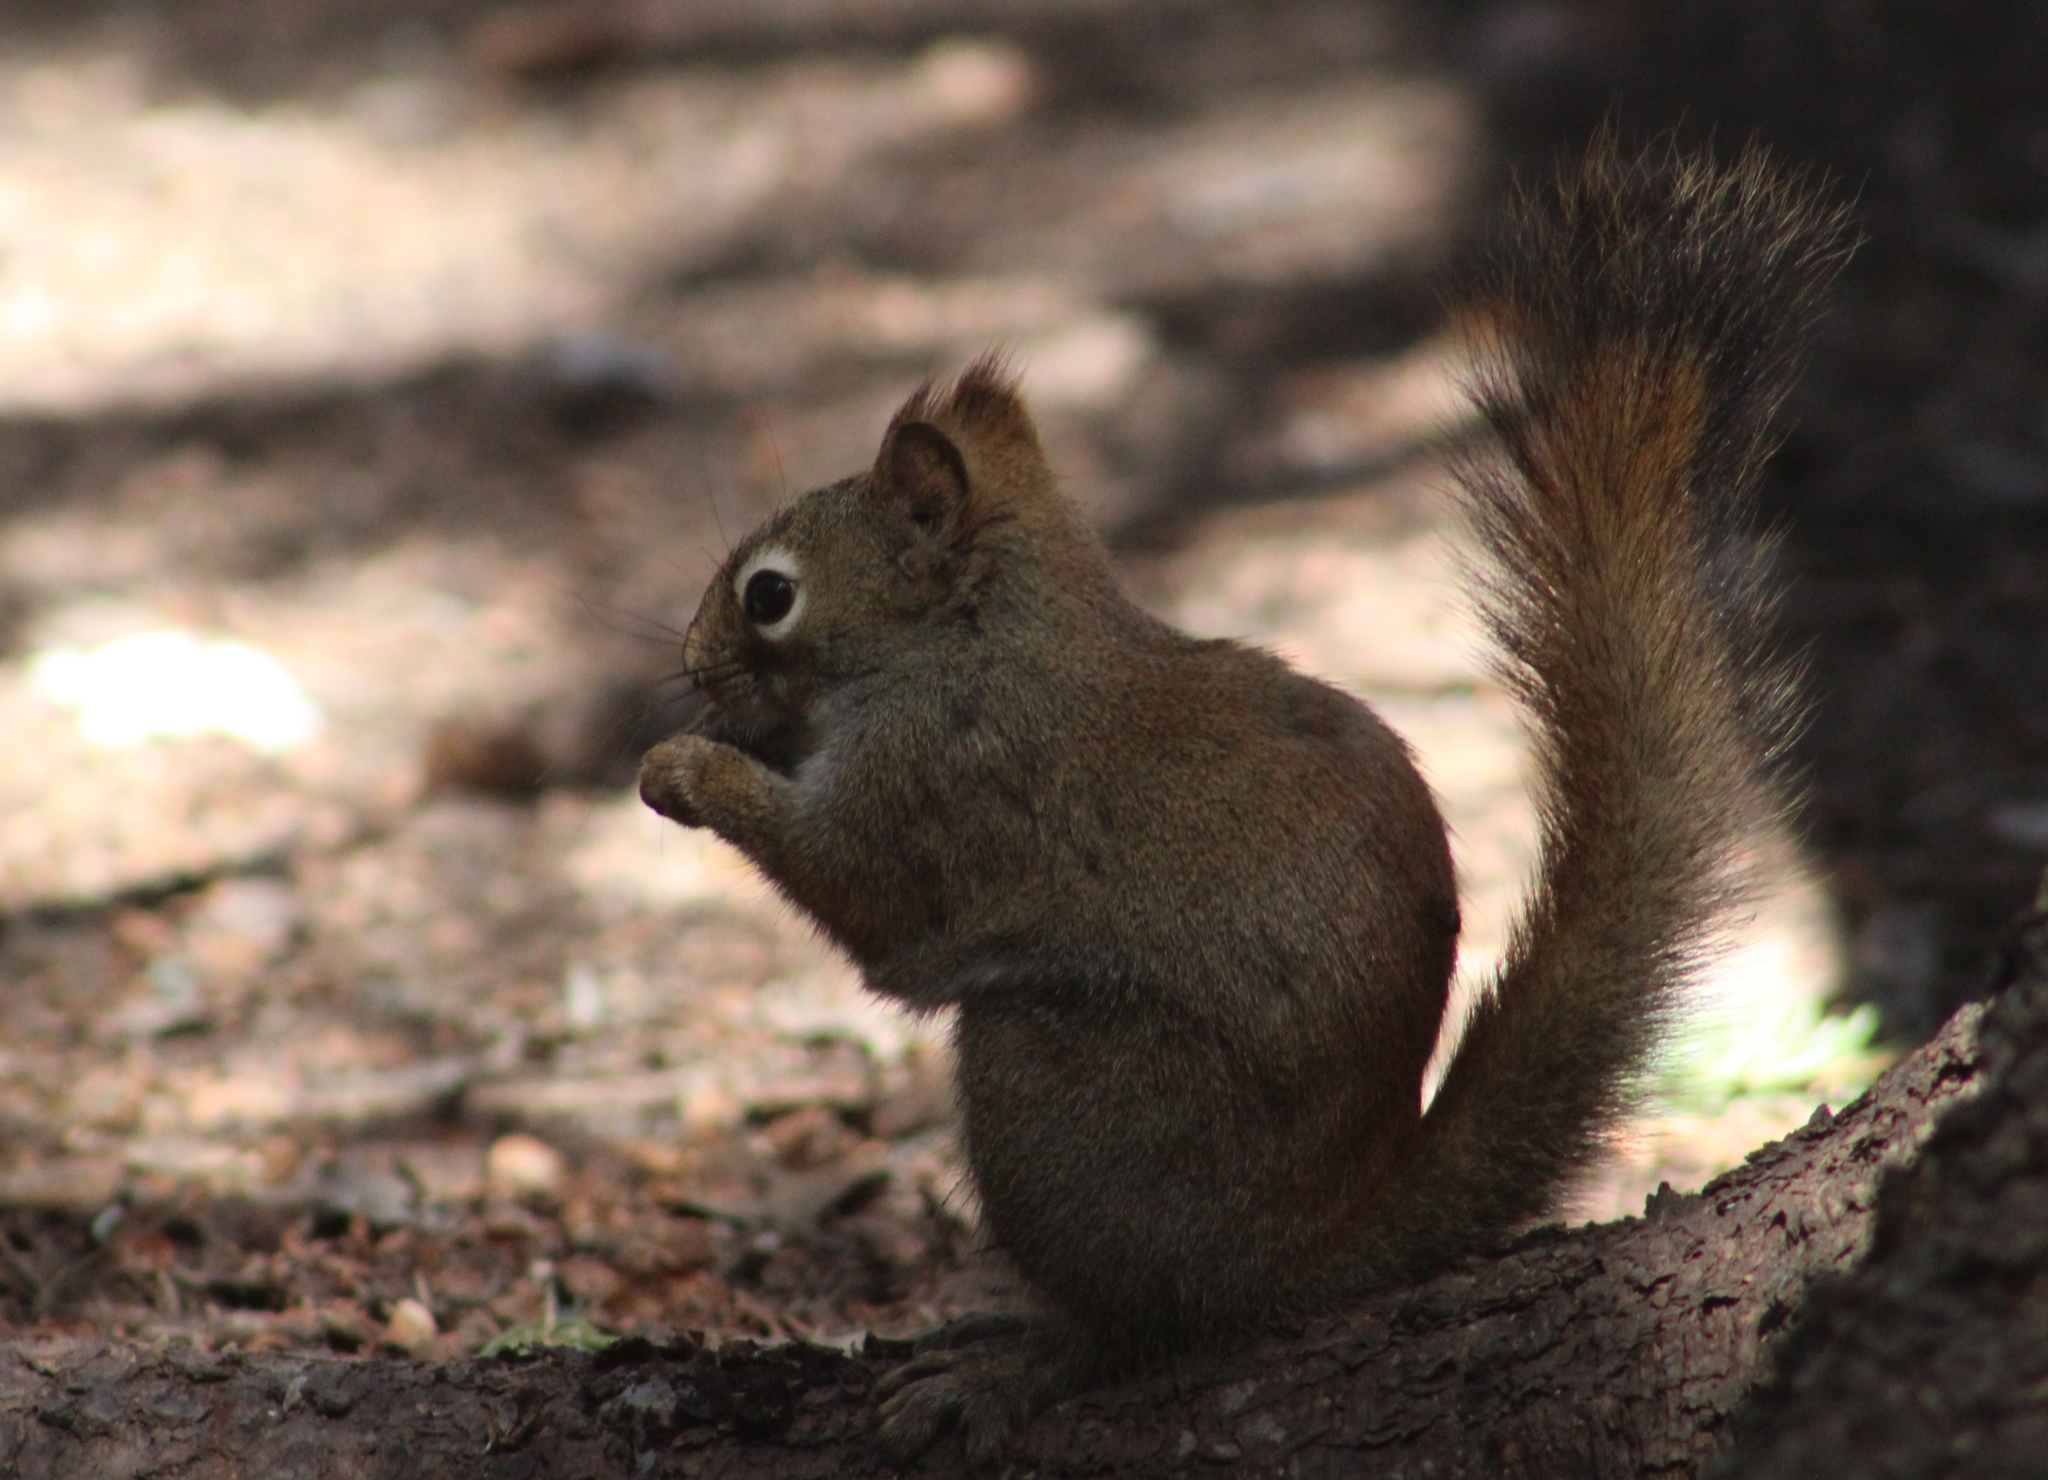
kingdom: Animalia
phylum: Chordata
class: Mammalia
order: Rodentia
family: Sciuridae
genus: Tamiasciurus
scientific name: Tamiasciurus hudsonicus
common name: Red squirrel
